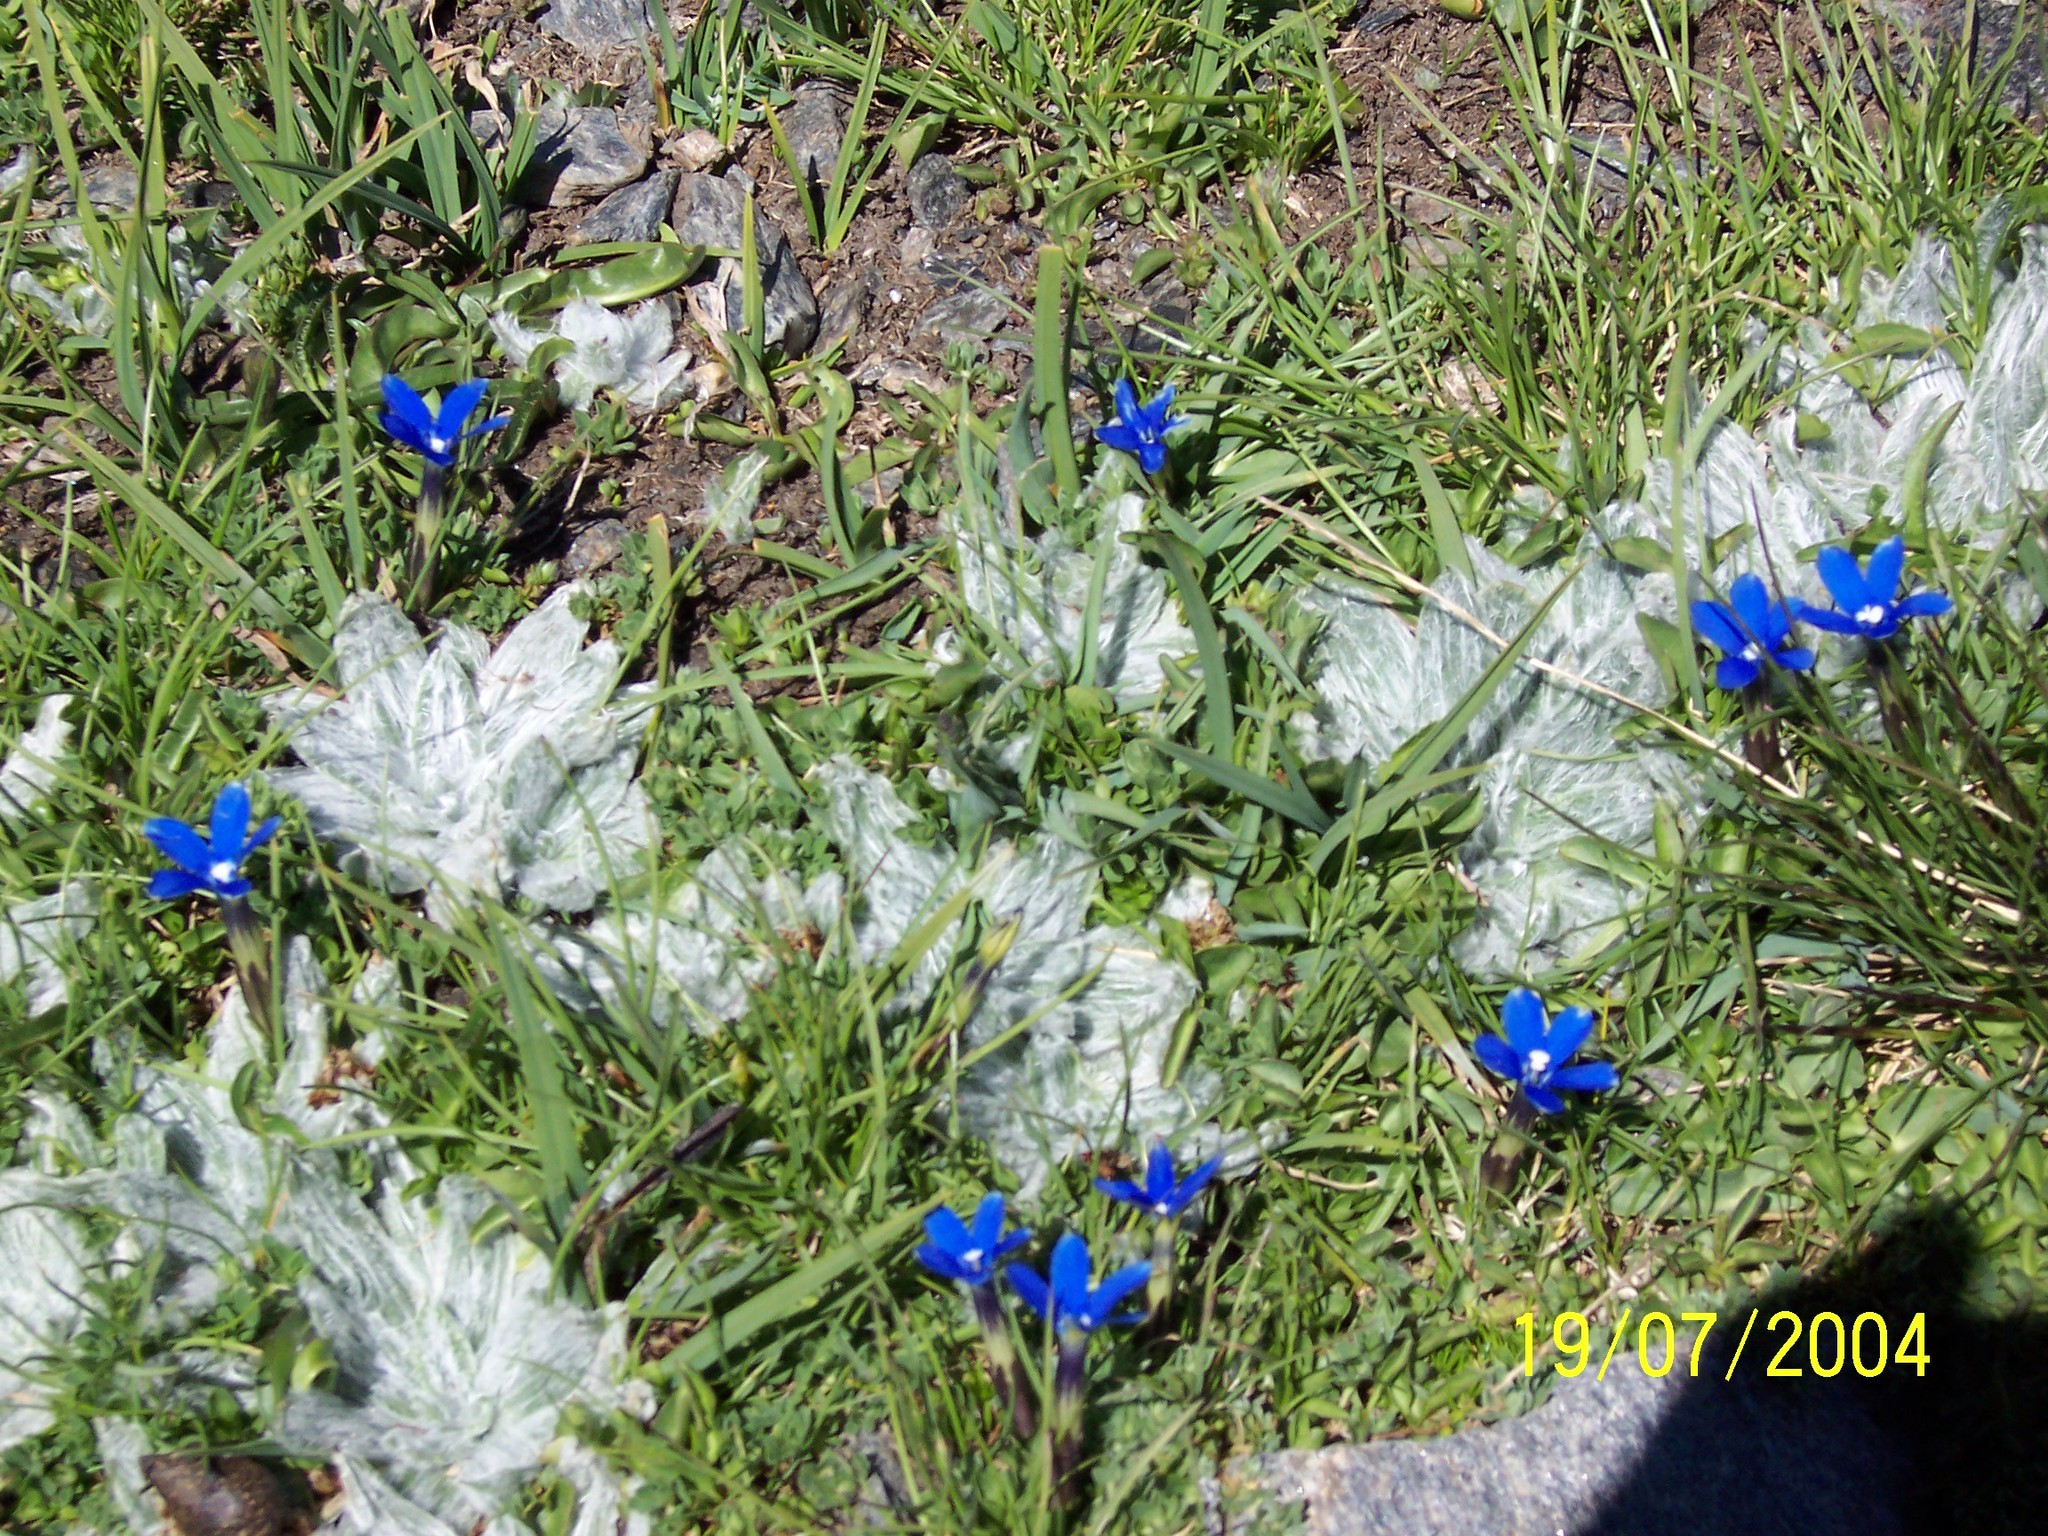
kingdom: Plantae
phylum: Tracheophyta
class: Magnoliopsida
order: Gentianales
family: Gentianaceae
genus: Gentiana
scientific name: Gentiana sierrae
